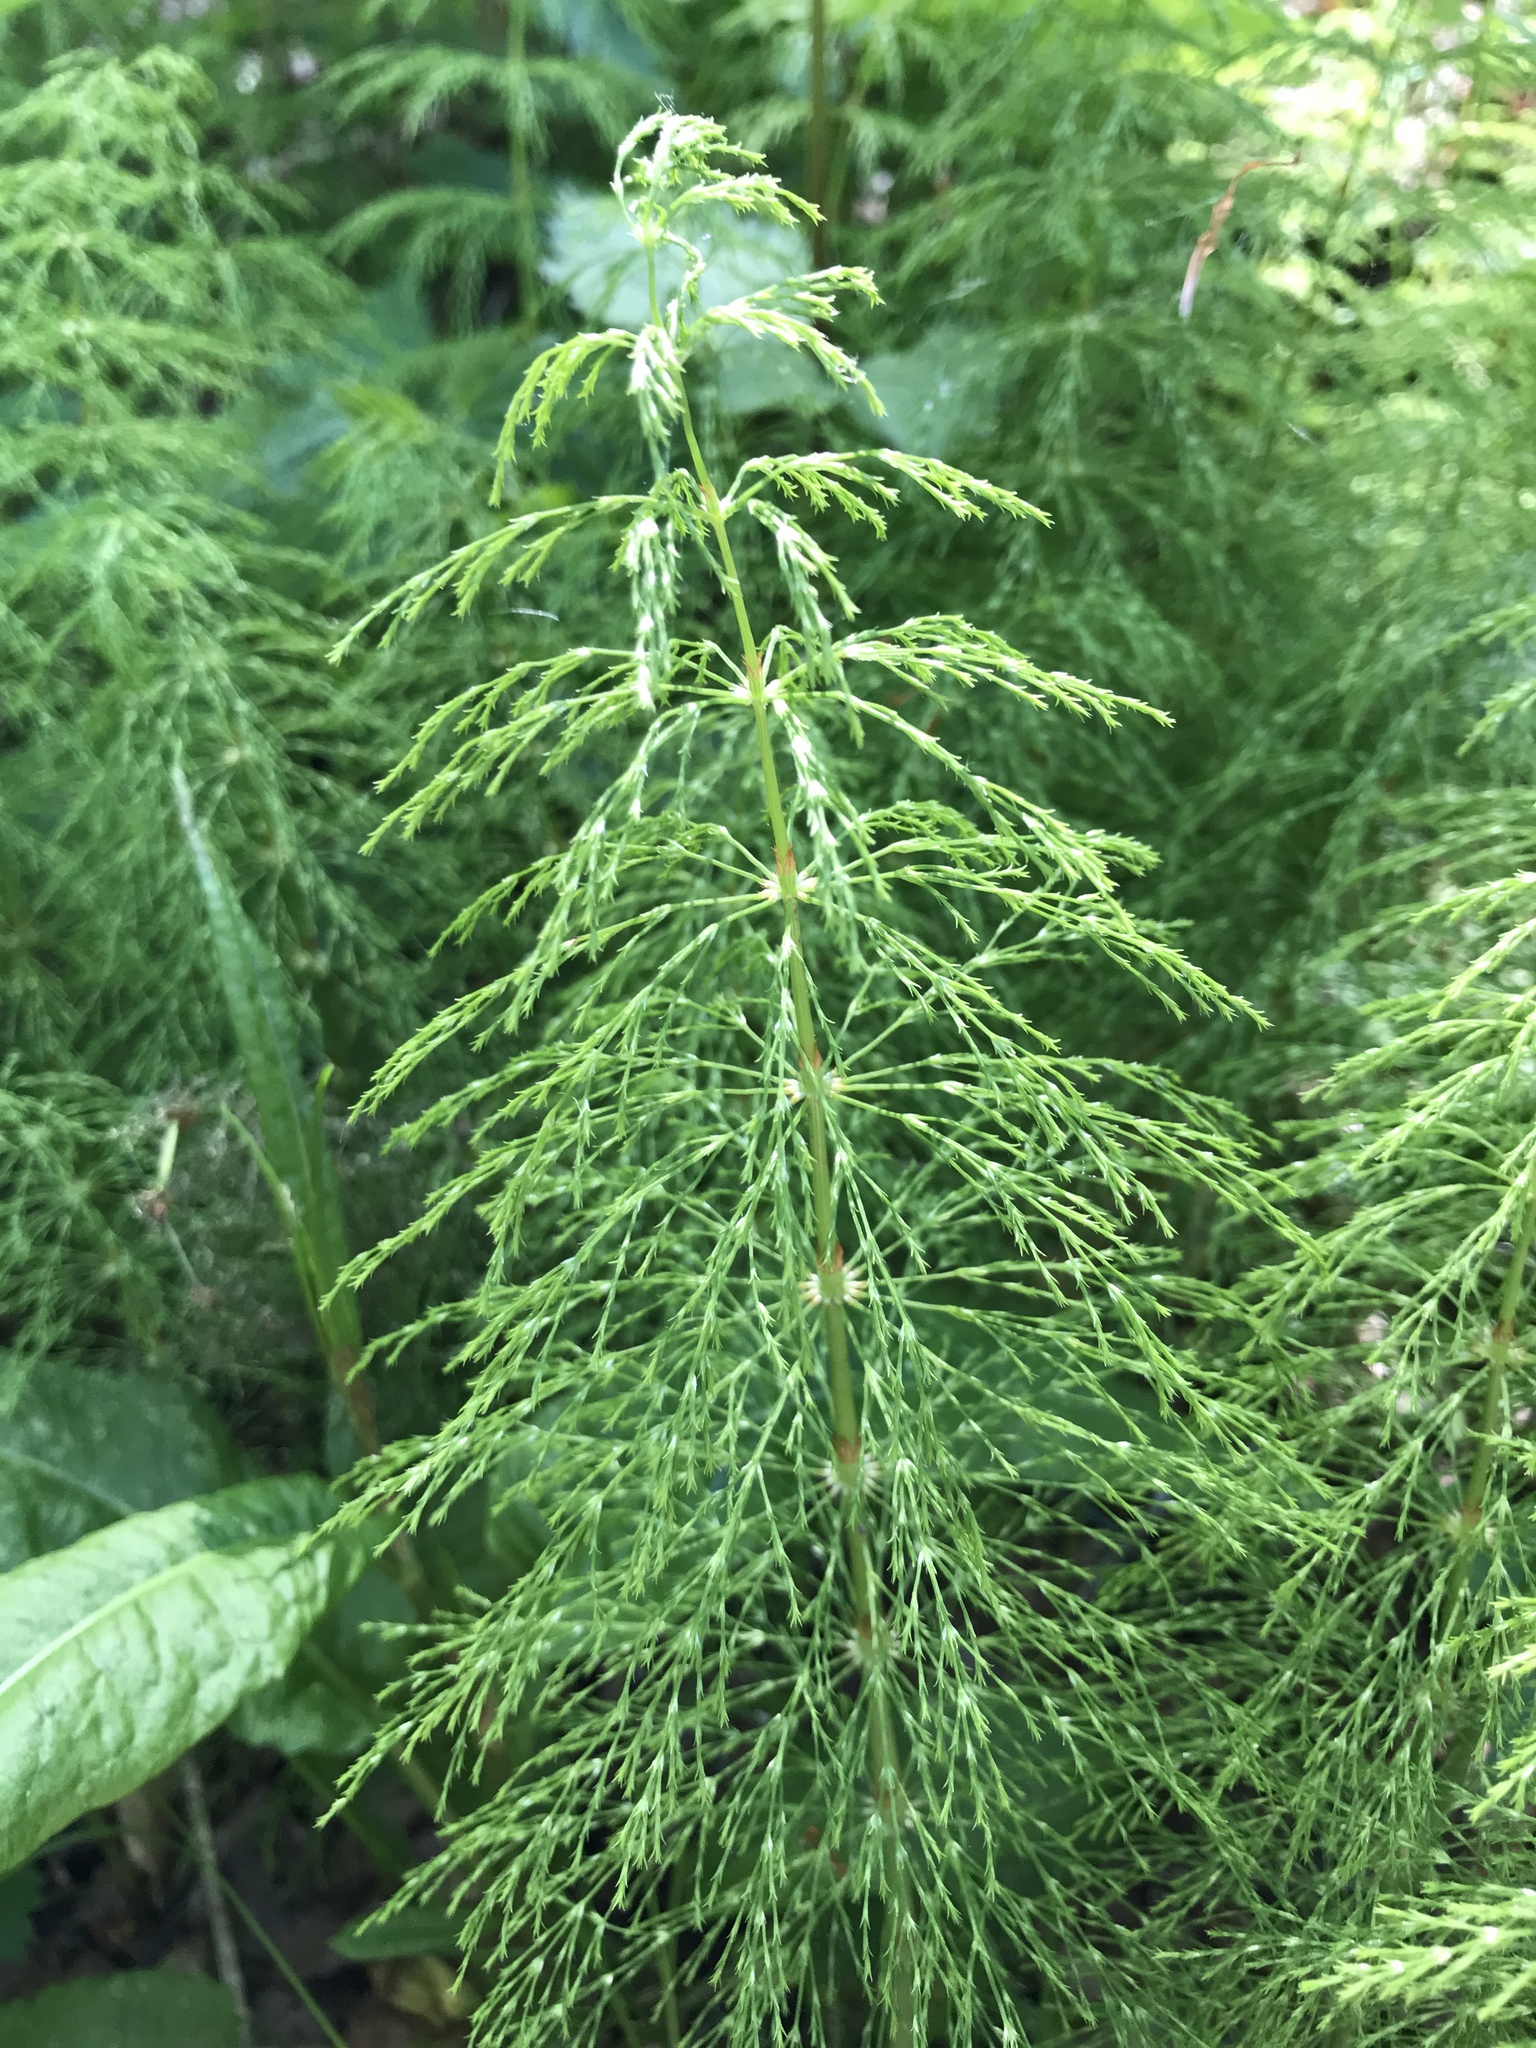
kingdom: Plantae
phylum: Tracheophyta
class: Polypodiopsida
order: Equisetales
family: Equisetaceae
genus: Equisetum
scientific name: Equisetum sylvaticum
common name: Wood horsetail
